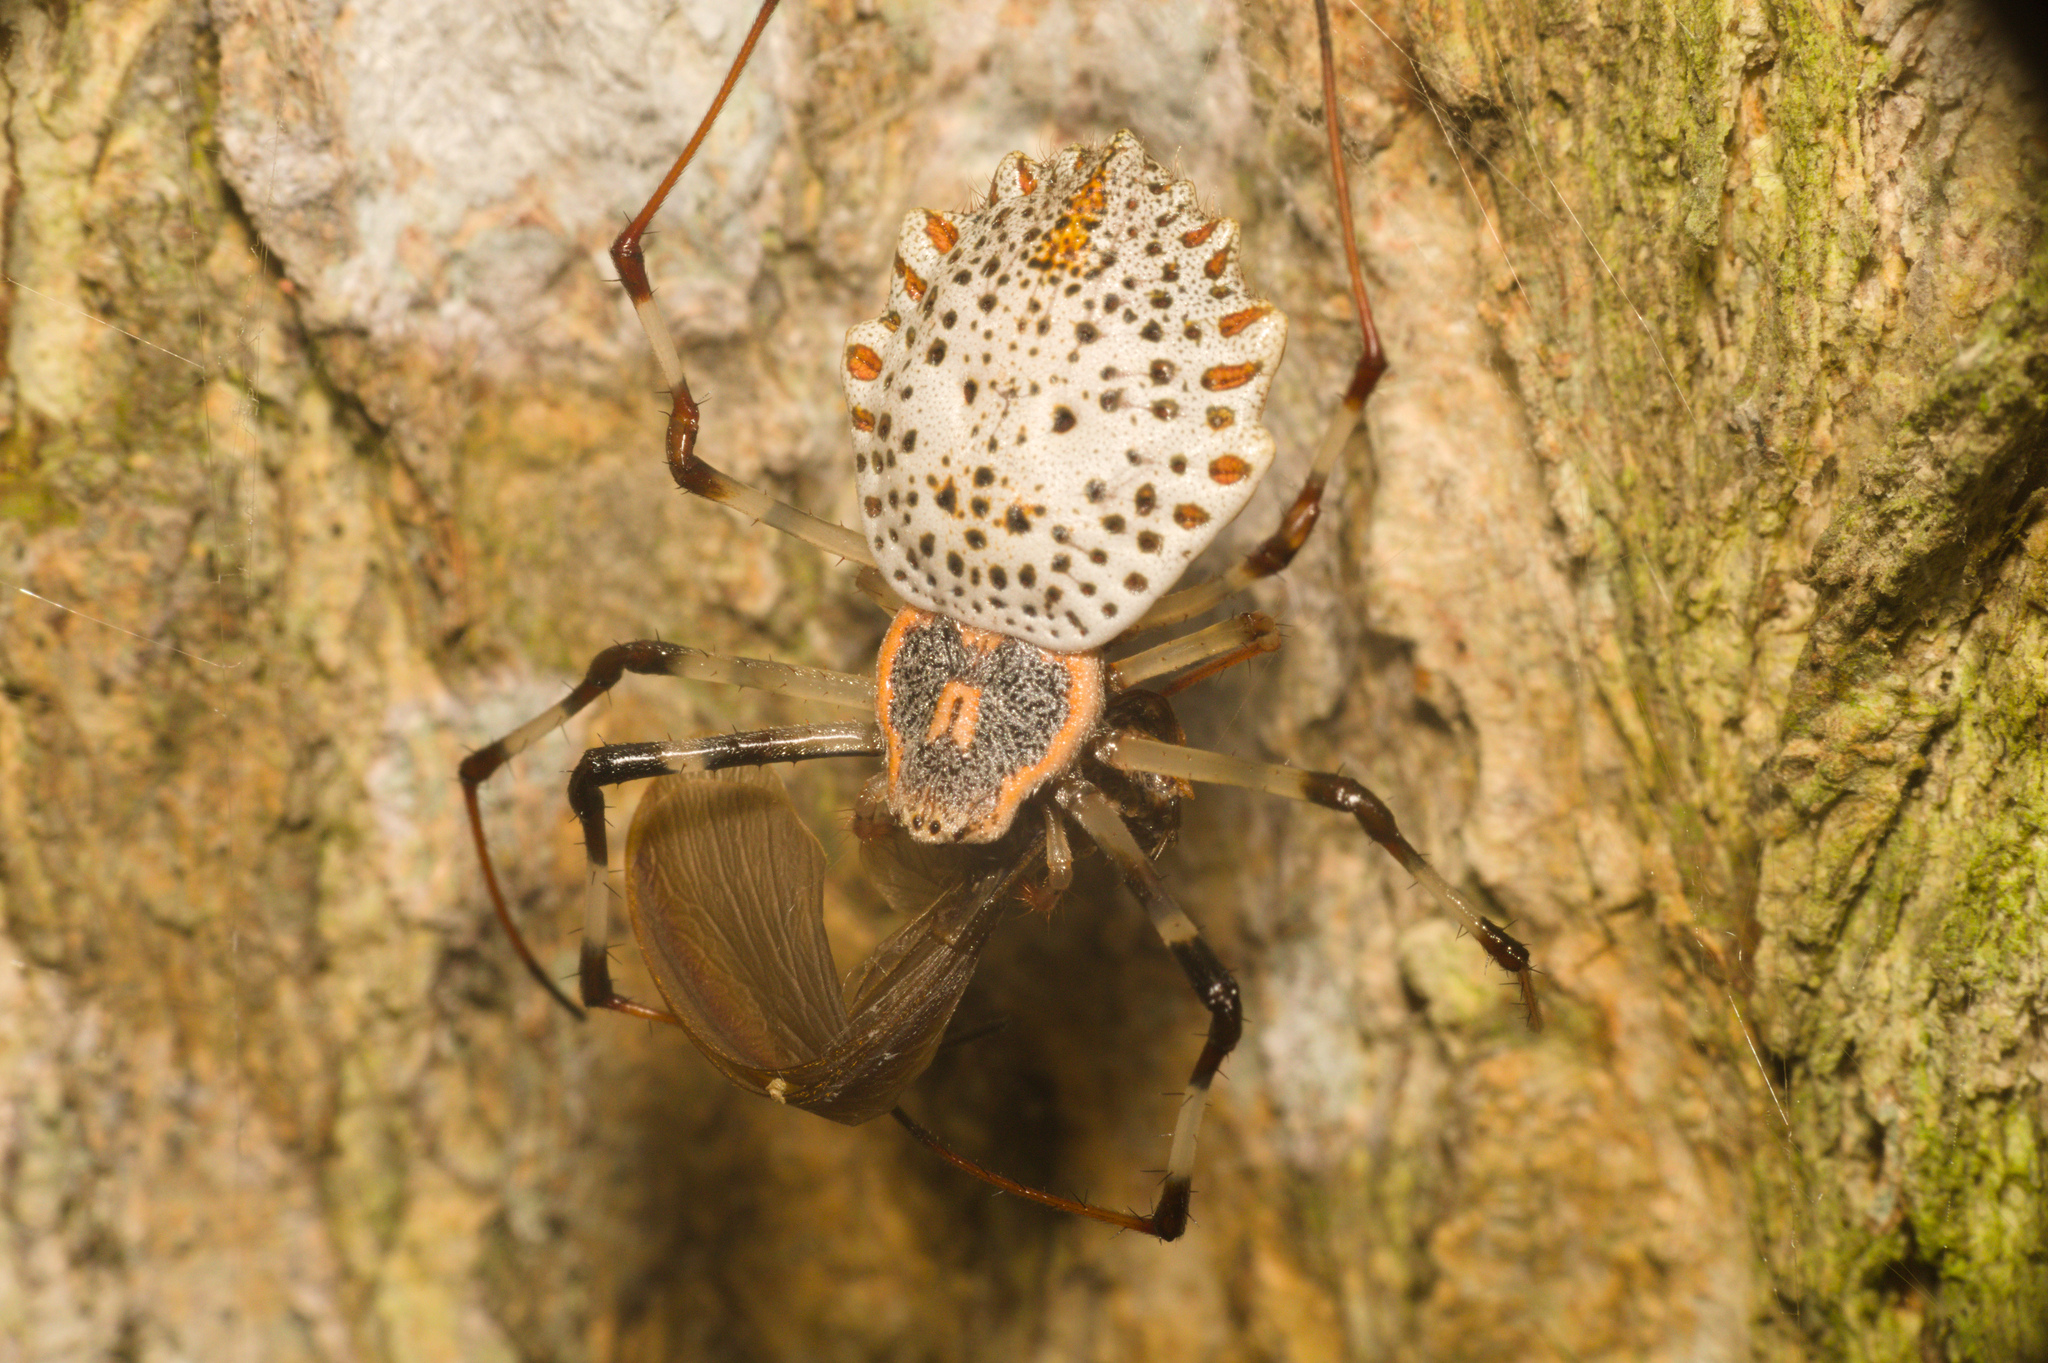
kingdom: Animalia
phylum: Arthropoda
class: Arachnida
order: Araneae
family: Araneidae
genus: Herennia
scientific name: Herennia multipuncta
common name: Spotted coin spider
